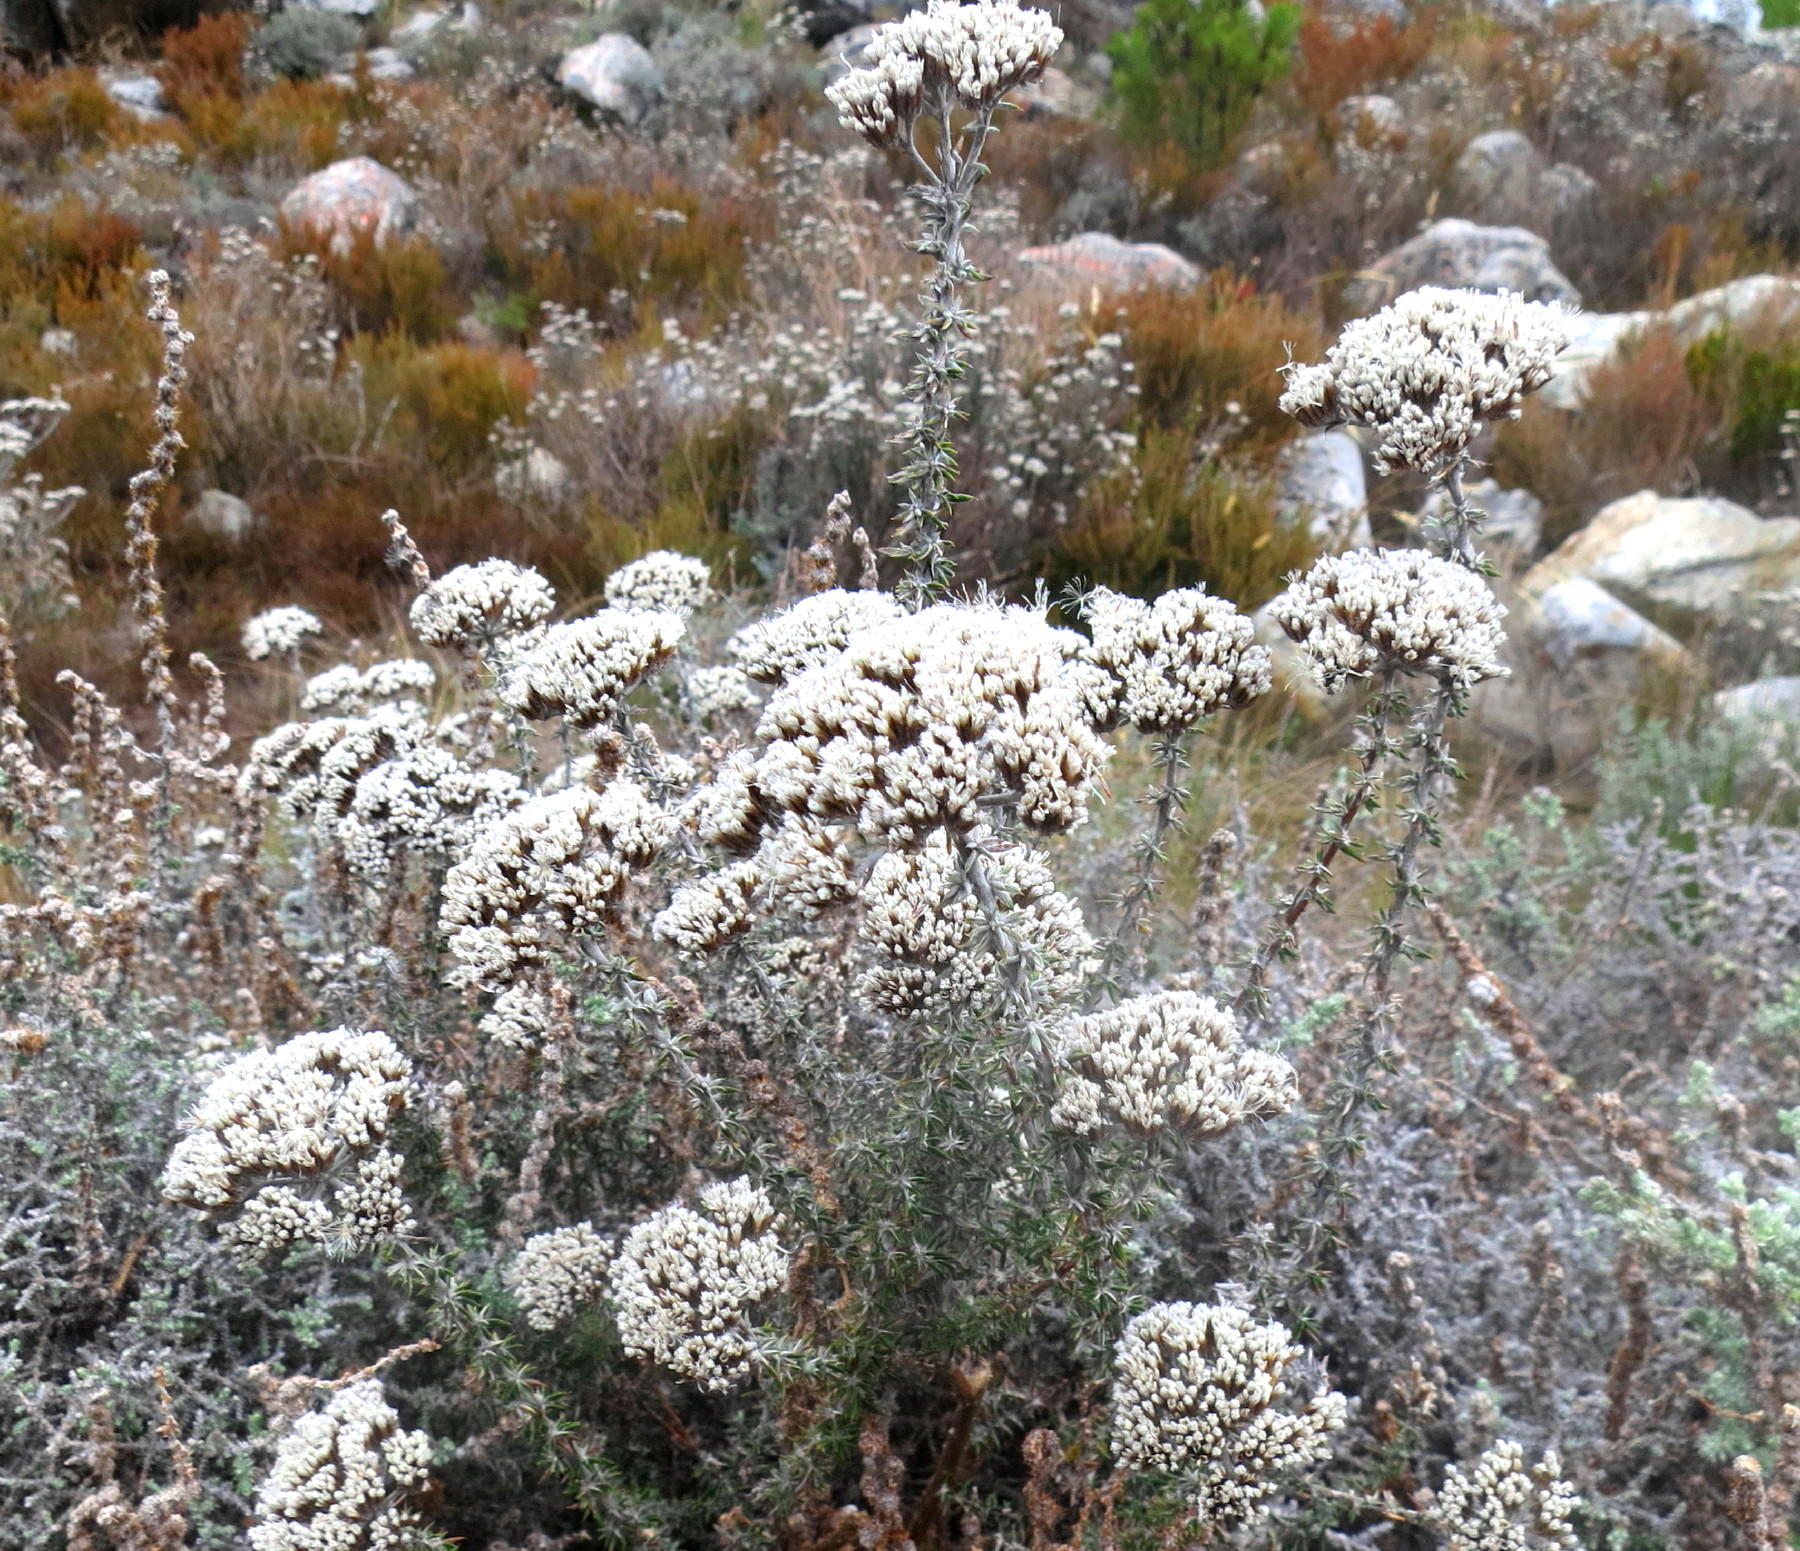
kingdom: Plantae
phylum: Tracheophyta
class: Magnoliopsida
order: Asterales
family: Asteraceae
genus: Metalasia
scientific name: Metalasia densa
